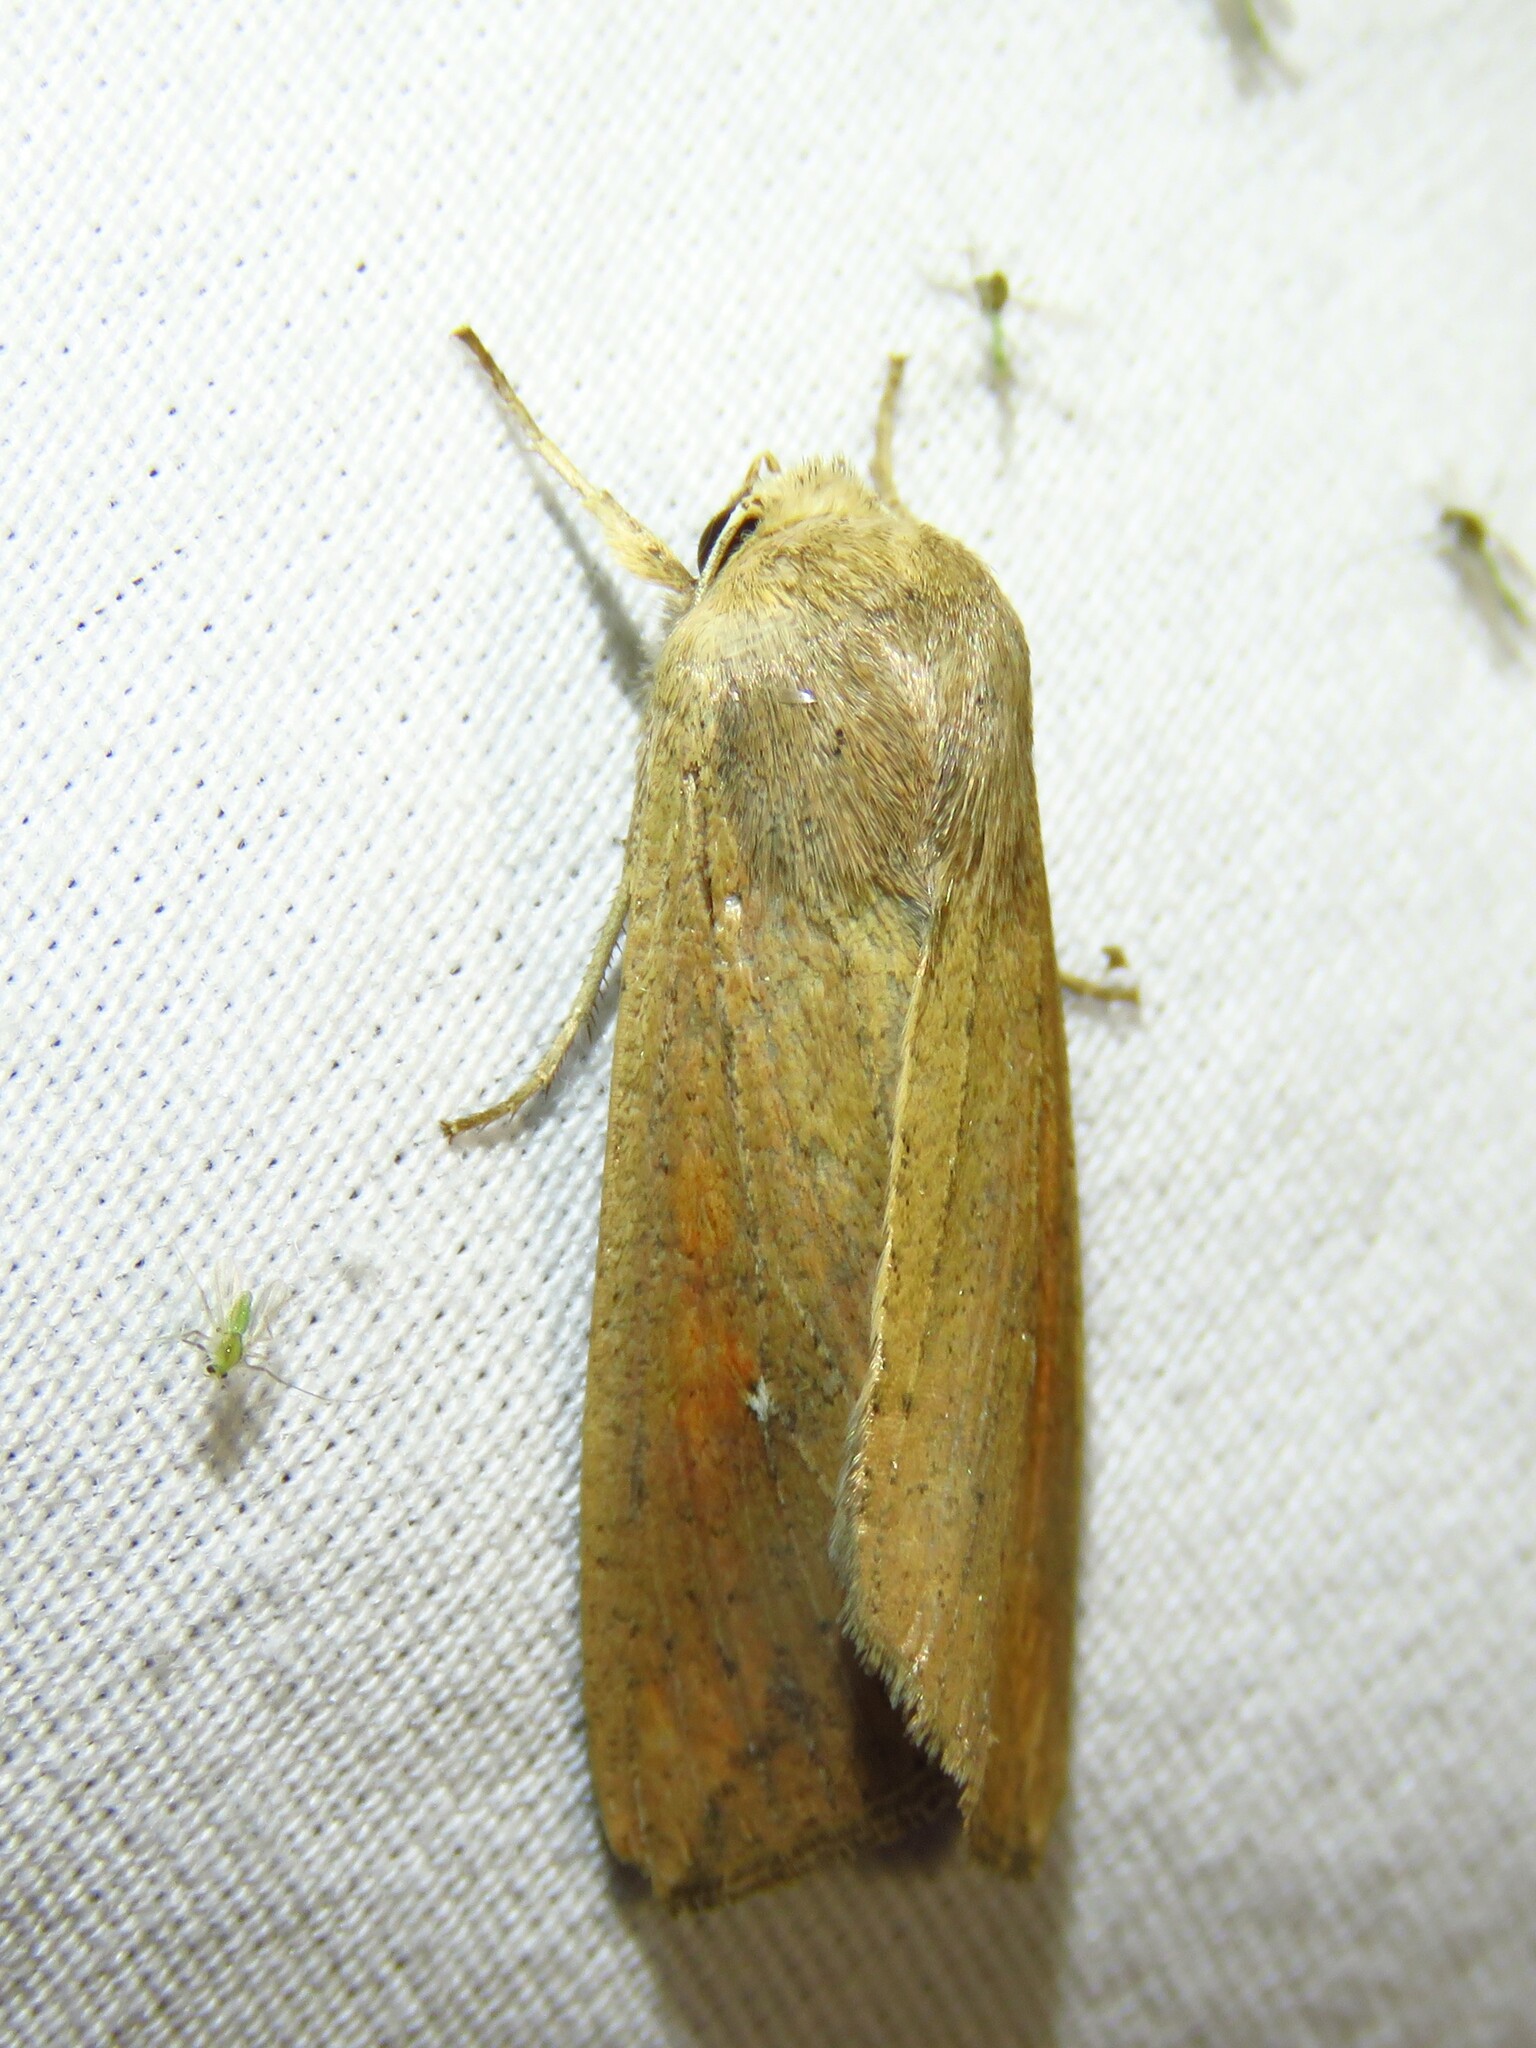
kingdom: Animalia
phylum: Arthropoda
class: Insecta
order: Lepidoptera
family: Noctuidae
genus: Mythimna
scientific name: Mythimna unipuncta
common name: White-speck
